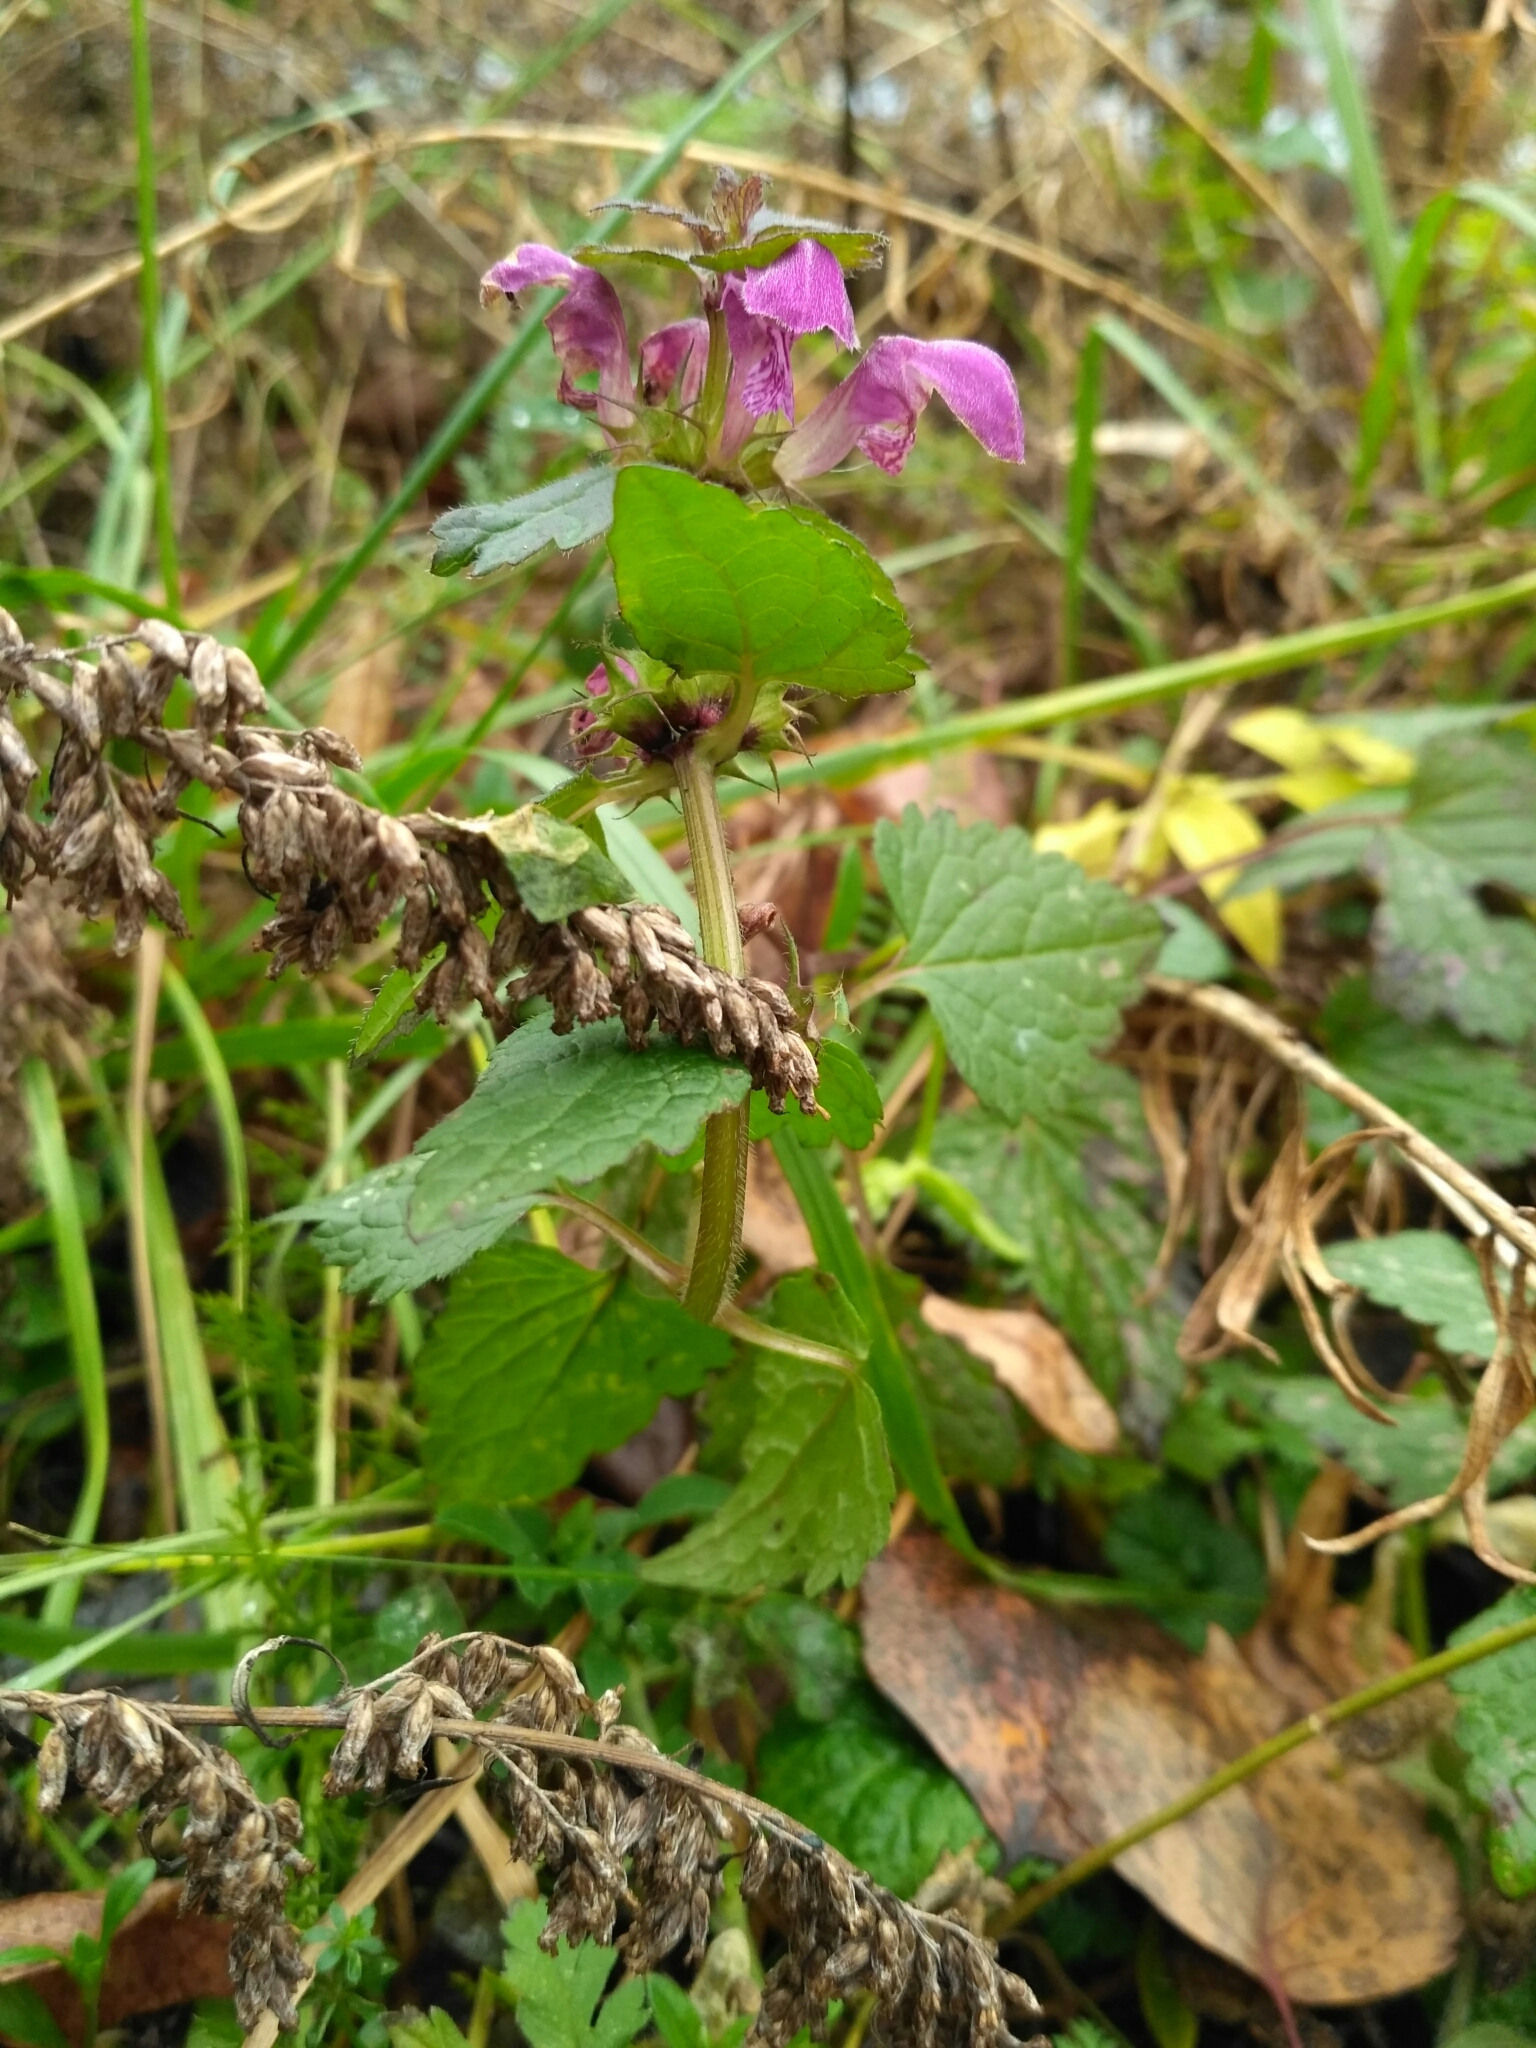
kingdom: Plantae
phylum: Tracheophyta
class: Magnoliopsida
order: Lamiales
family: Lamiaceae
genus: Lamium
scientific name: Lamium maculatum
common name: Spotted dead-nettle
